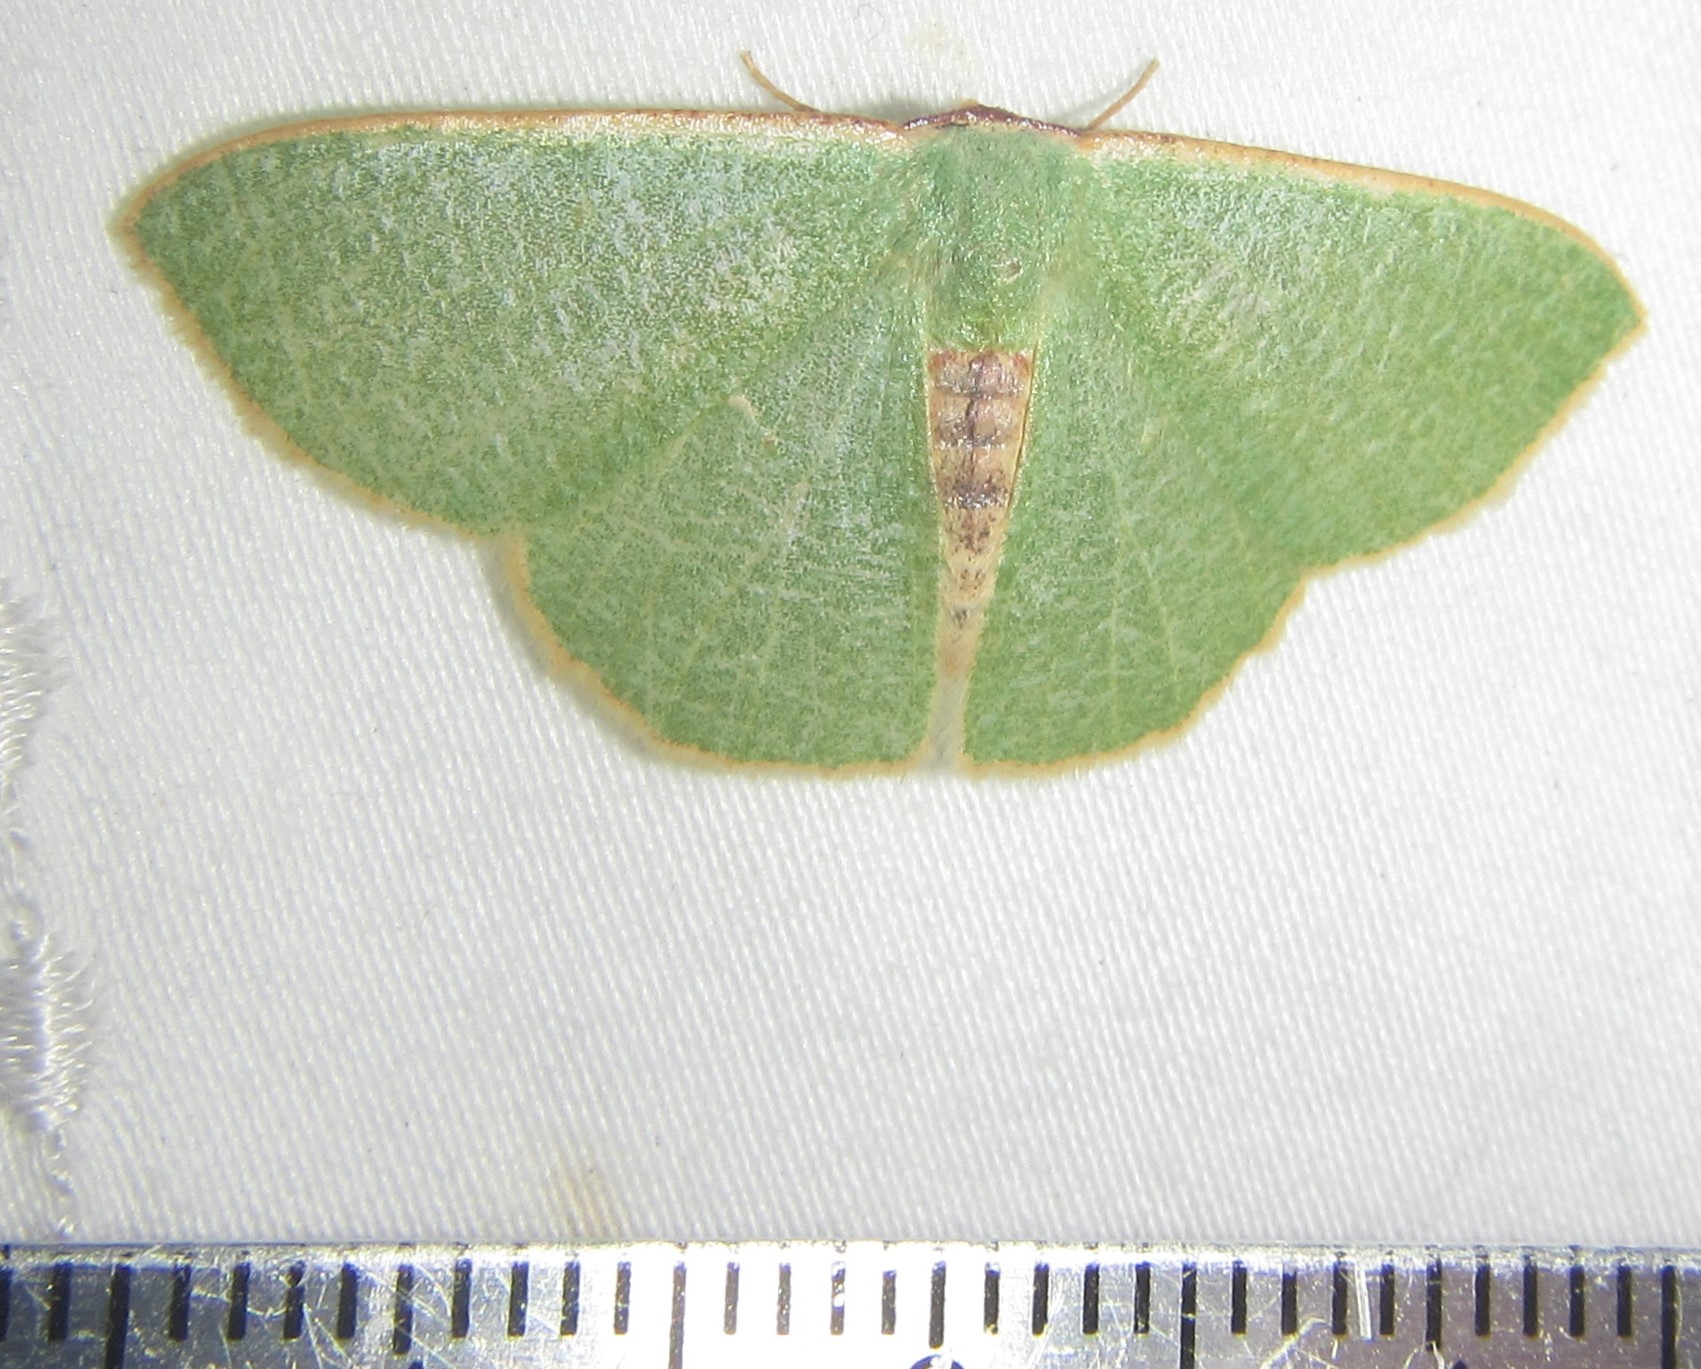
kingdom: Animalia
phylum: Arthropoda
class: Insecta
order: Lepidoptera
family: Geometridae
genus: Celidomphax
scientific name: Celidomphax quadrimacula
